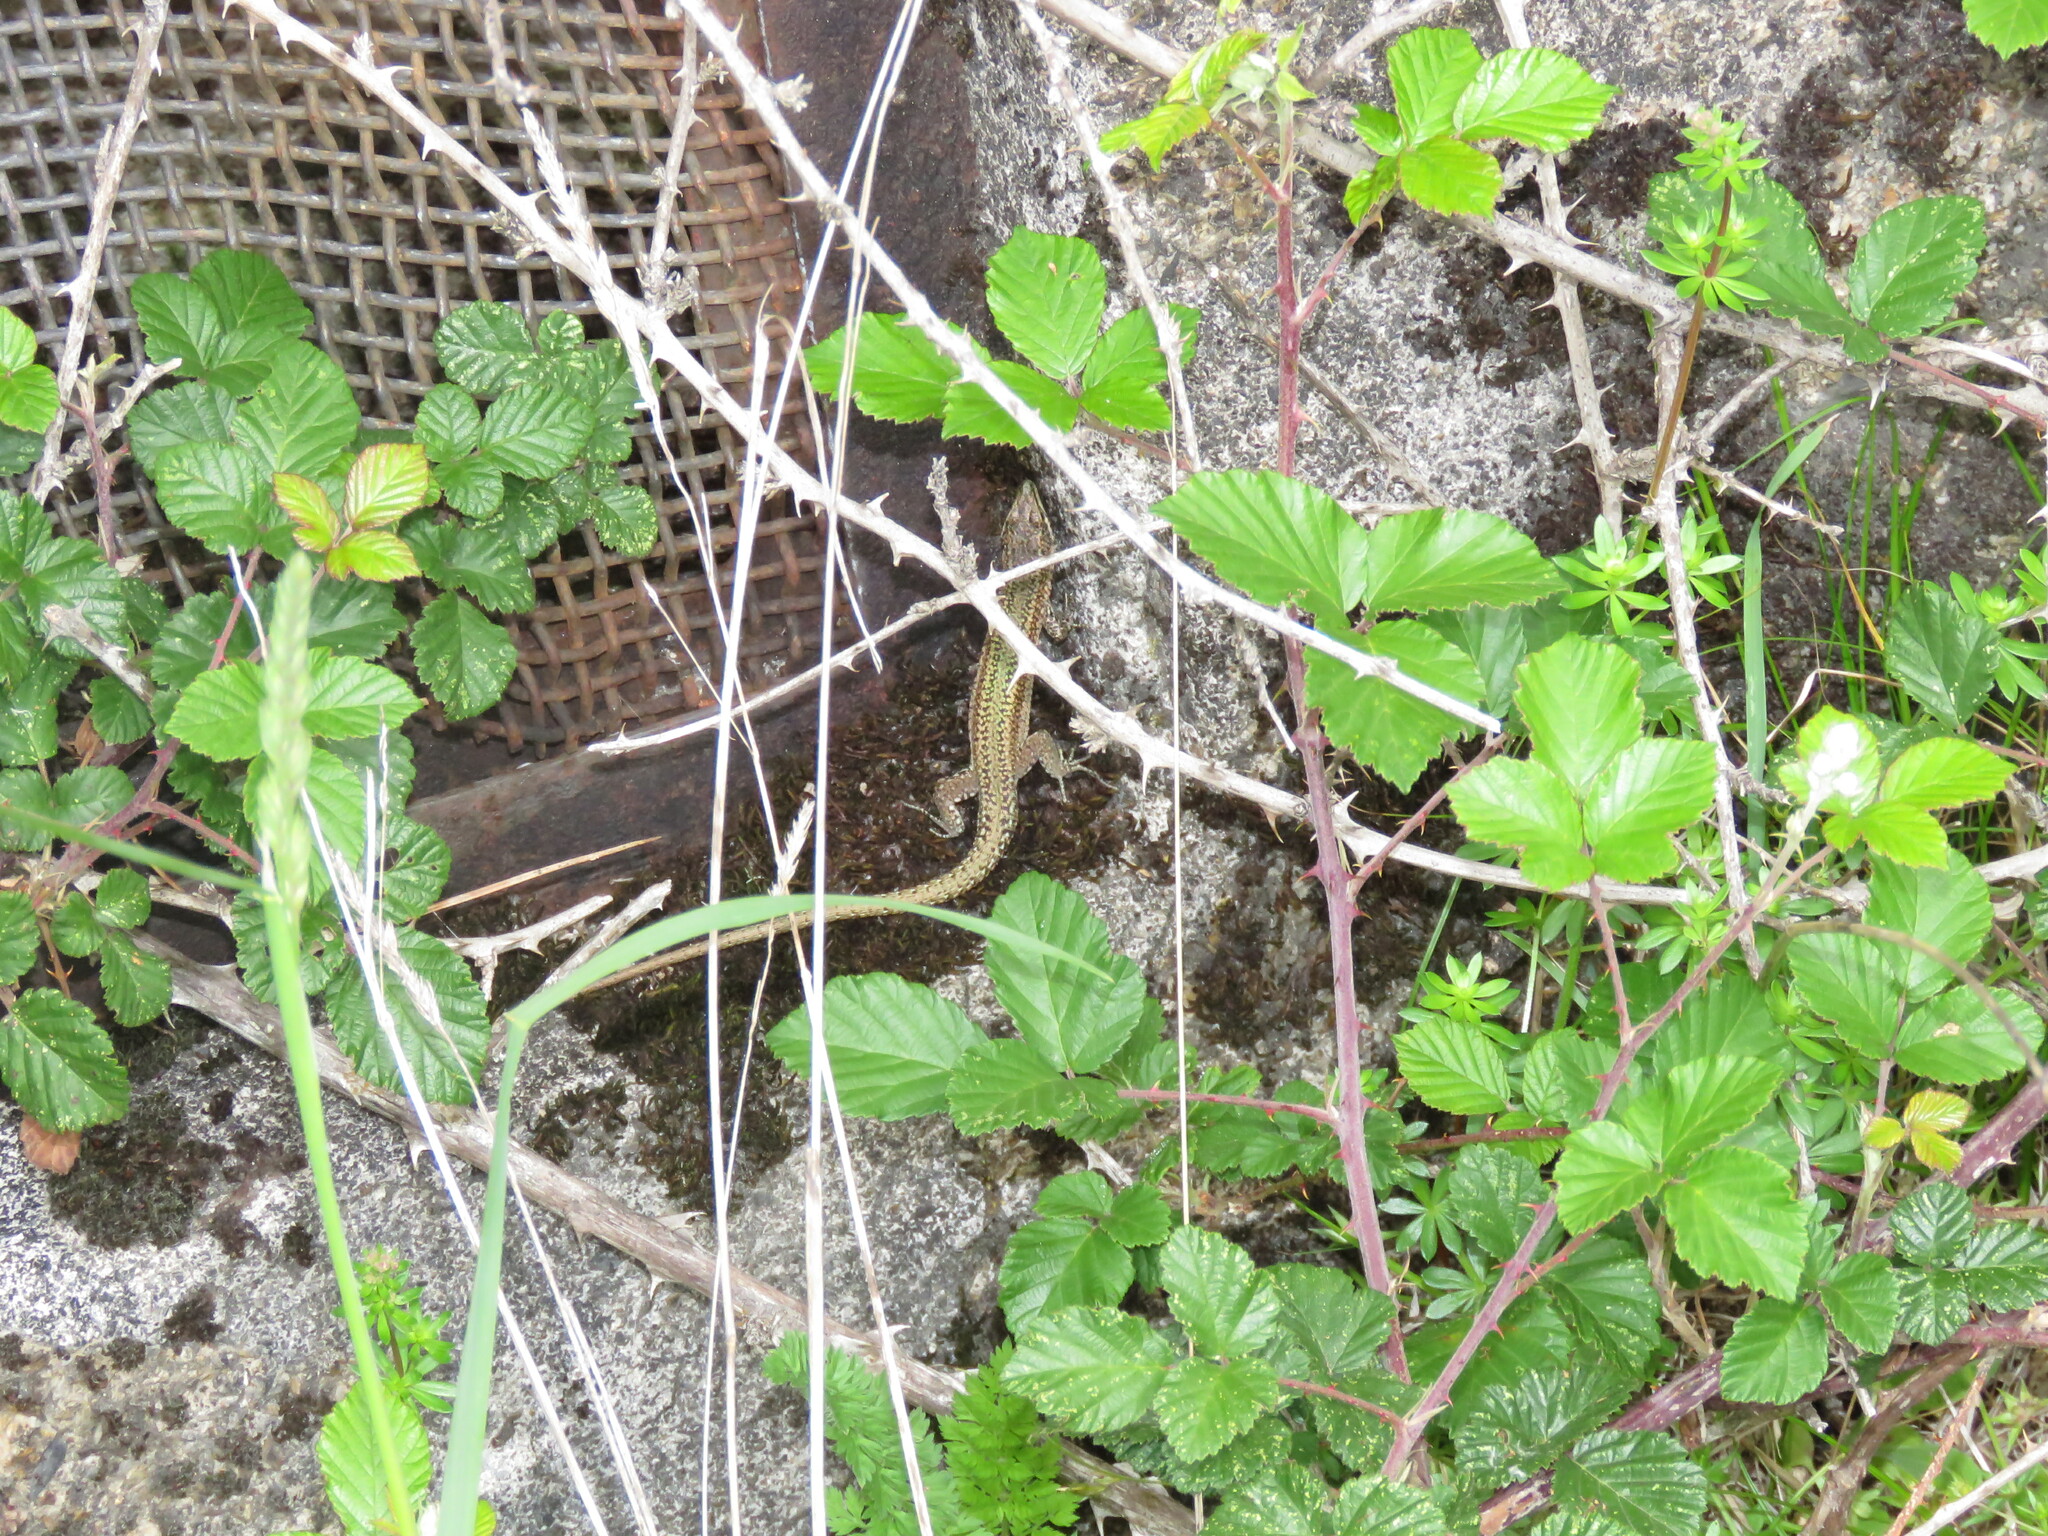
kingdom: Animalia
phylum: Chordata
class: Squamata
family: Lacertidae
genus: Podarcis
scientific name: Podarcis bocagei
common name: Bocage's wall lizard
